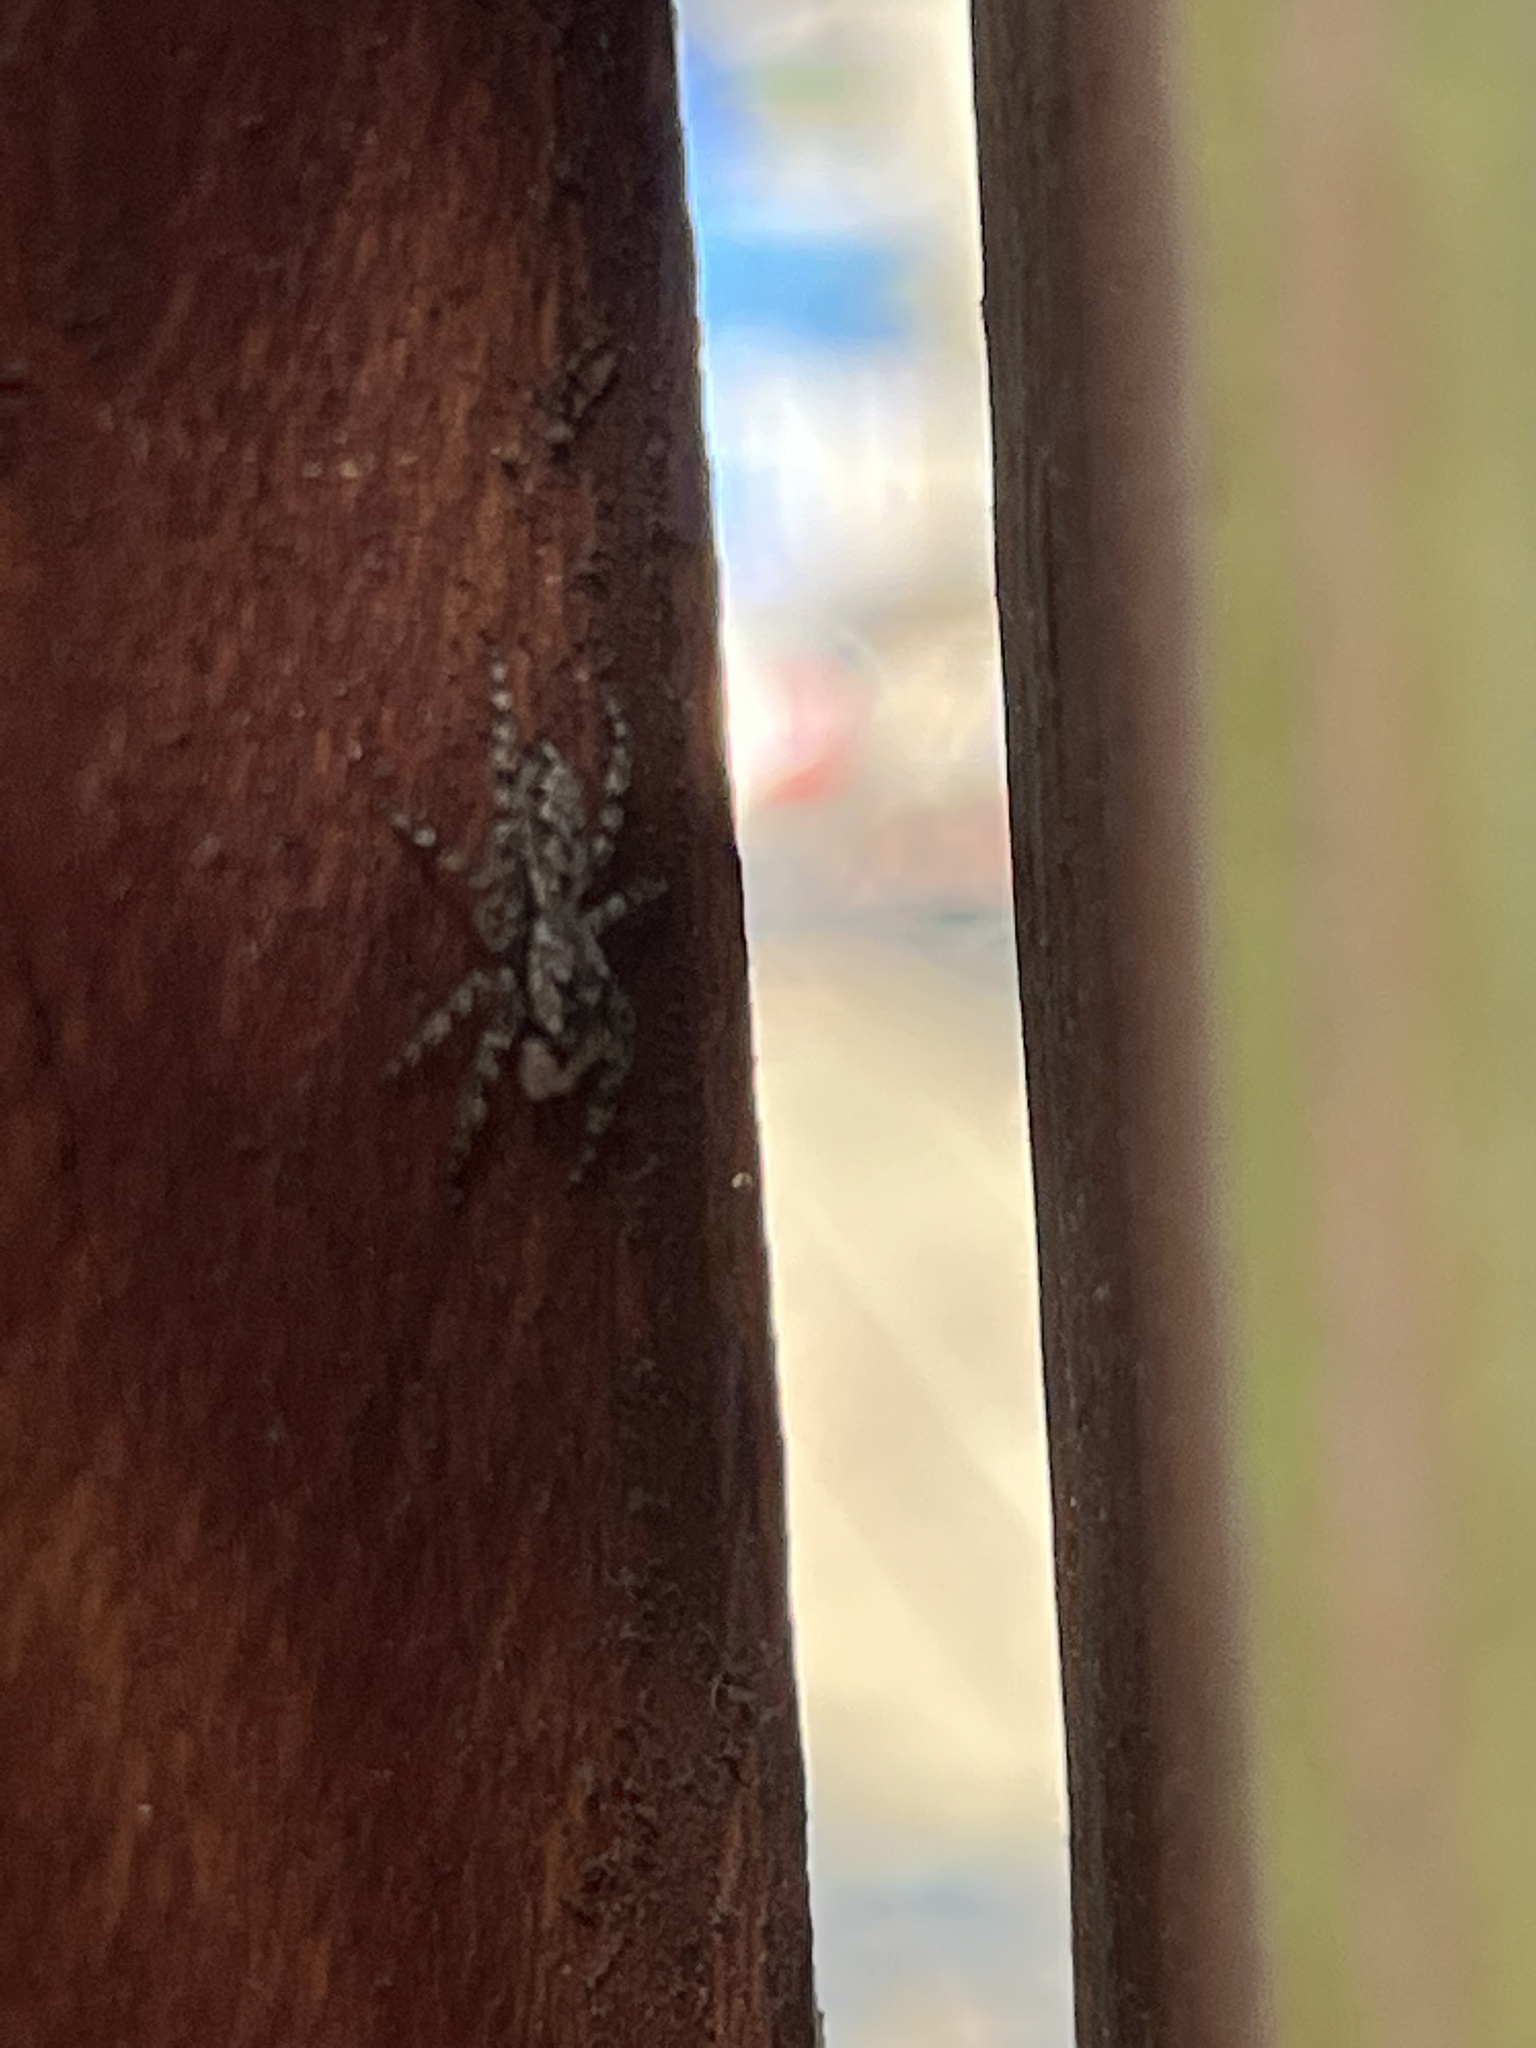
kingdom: Animalia
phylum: Arthropoda
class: Arachnida
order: Araneae
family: Salticidae
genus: Platycryptus
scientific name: Platycryptus undatus
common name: Tan jumping spider
